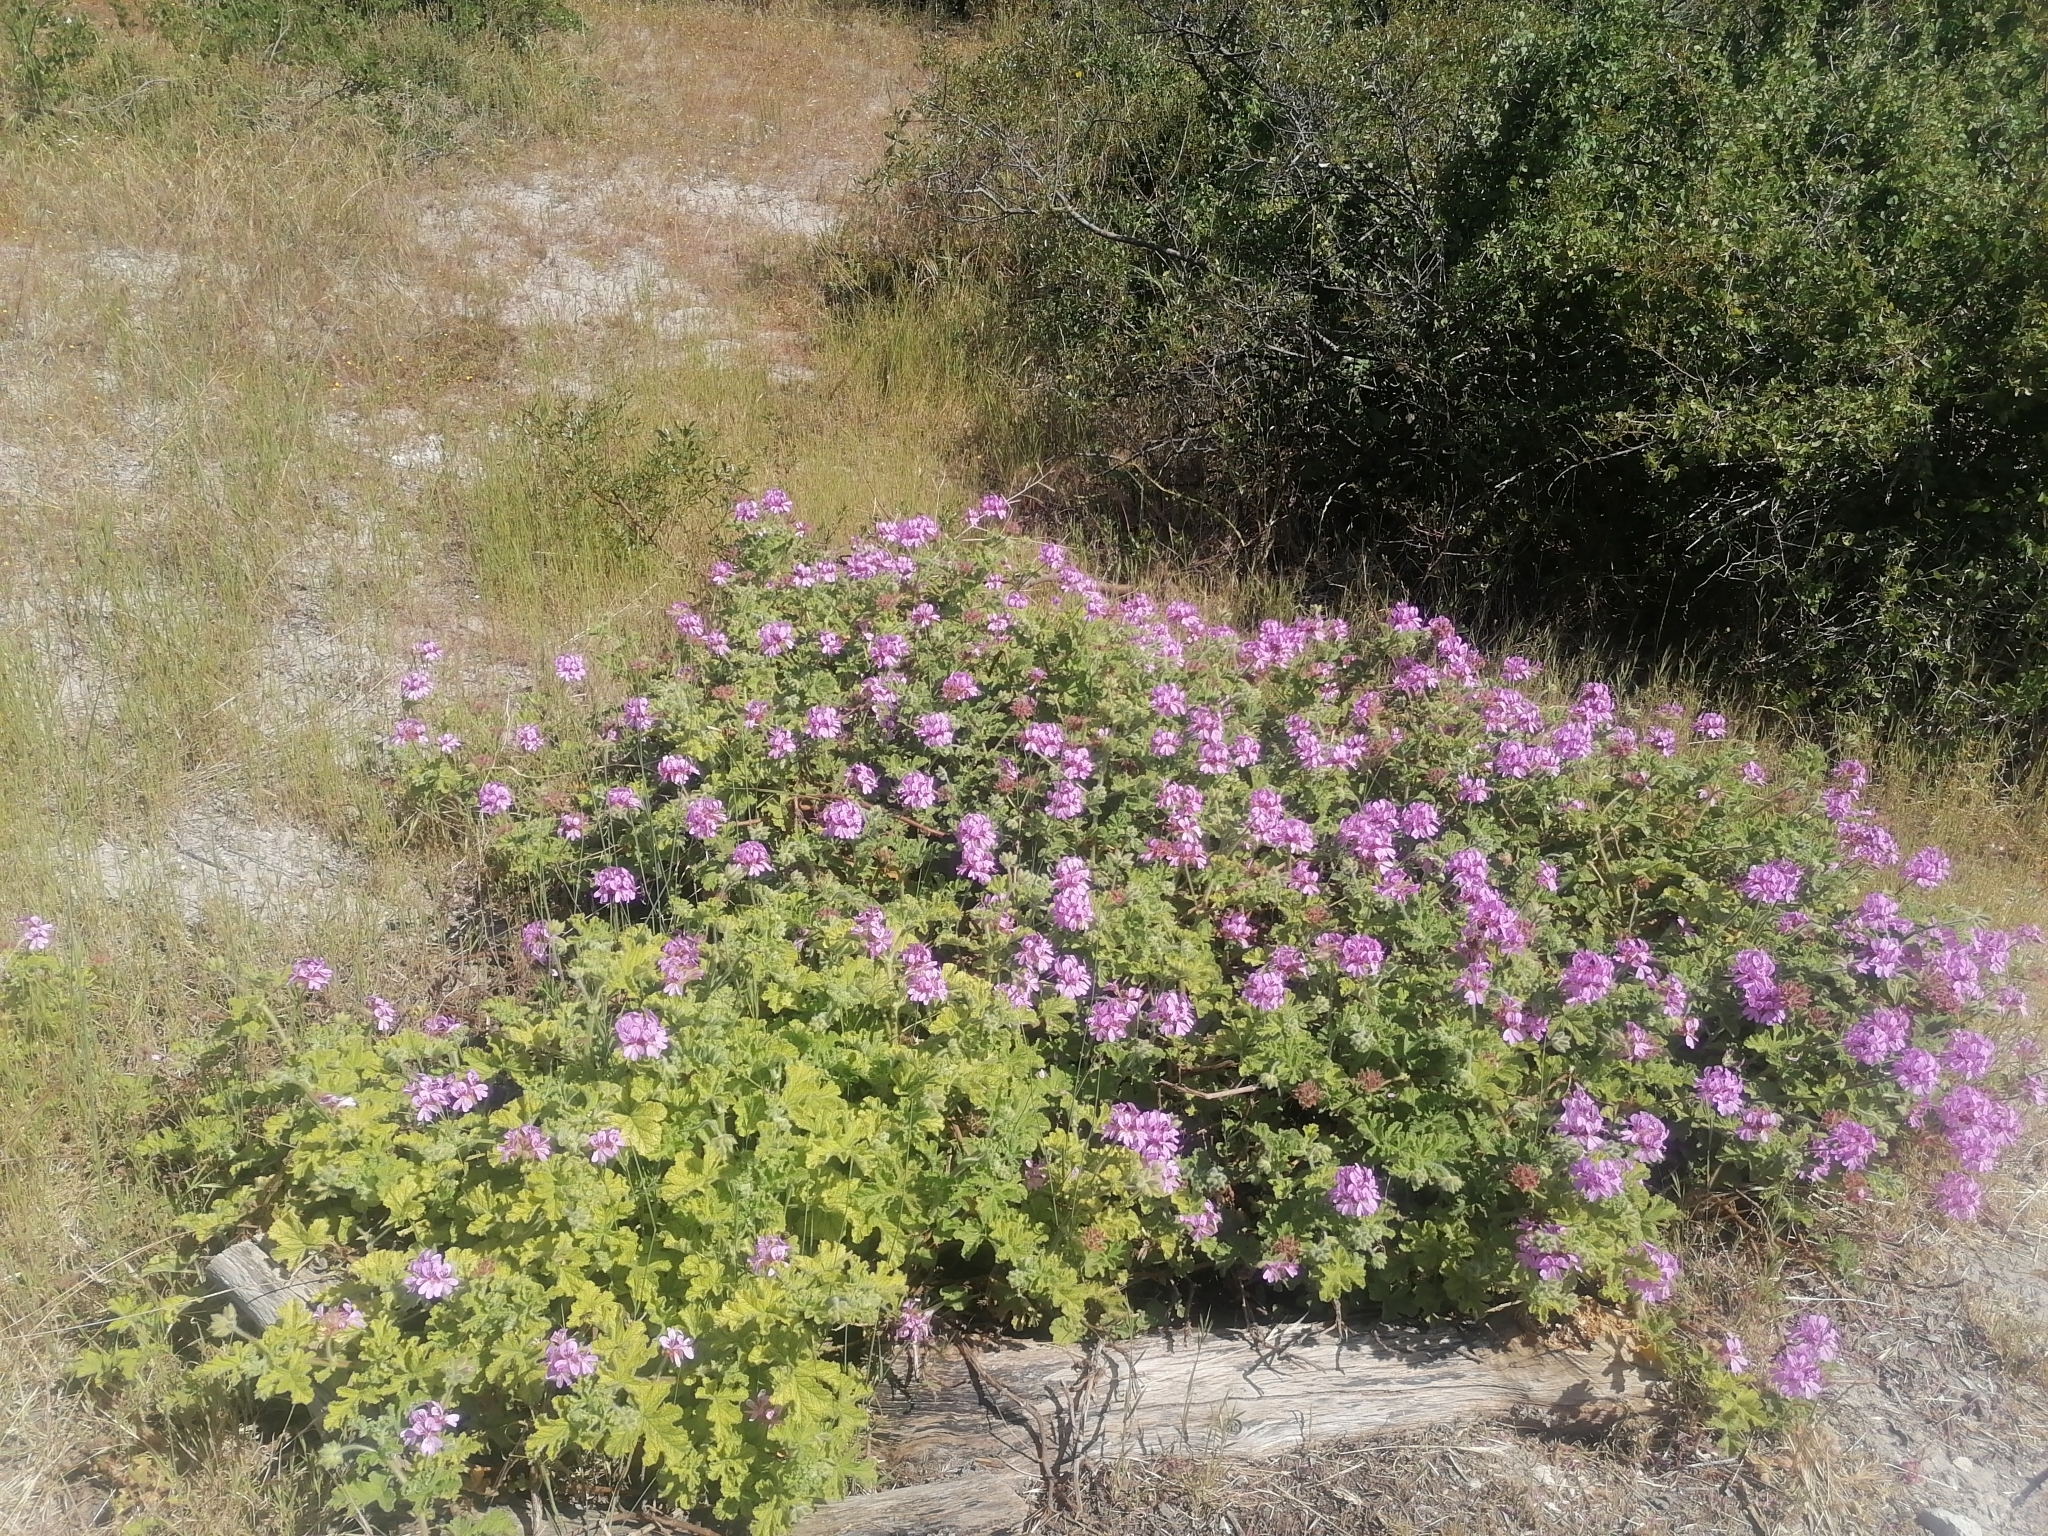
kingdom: Plantae
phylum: Tracheophyta
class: Magnoliopsida
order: Geraniales
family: Geraniaceae
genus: Pelargonium
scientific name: Pelargonium capitatum
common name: Rose scented geranium
